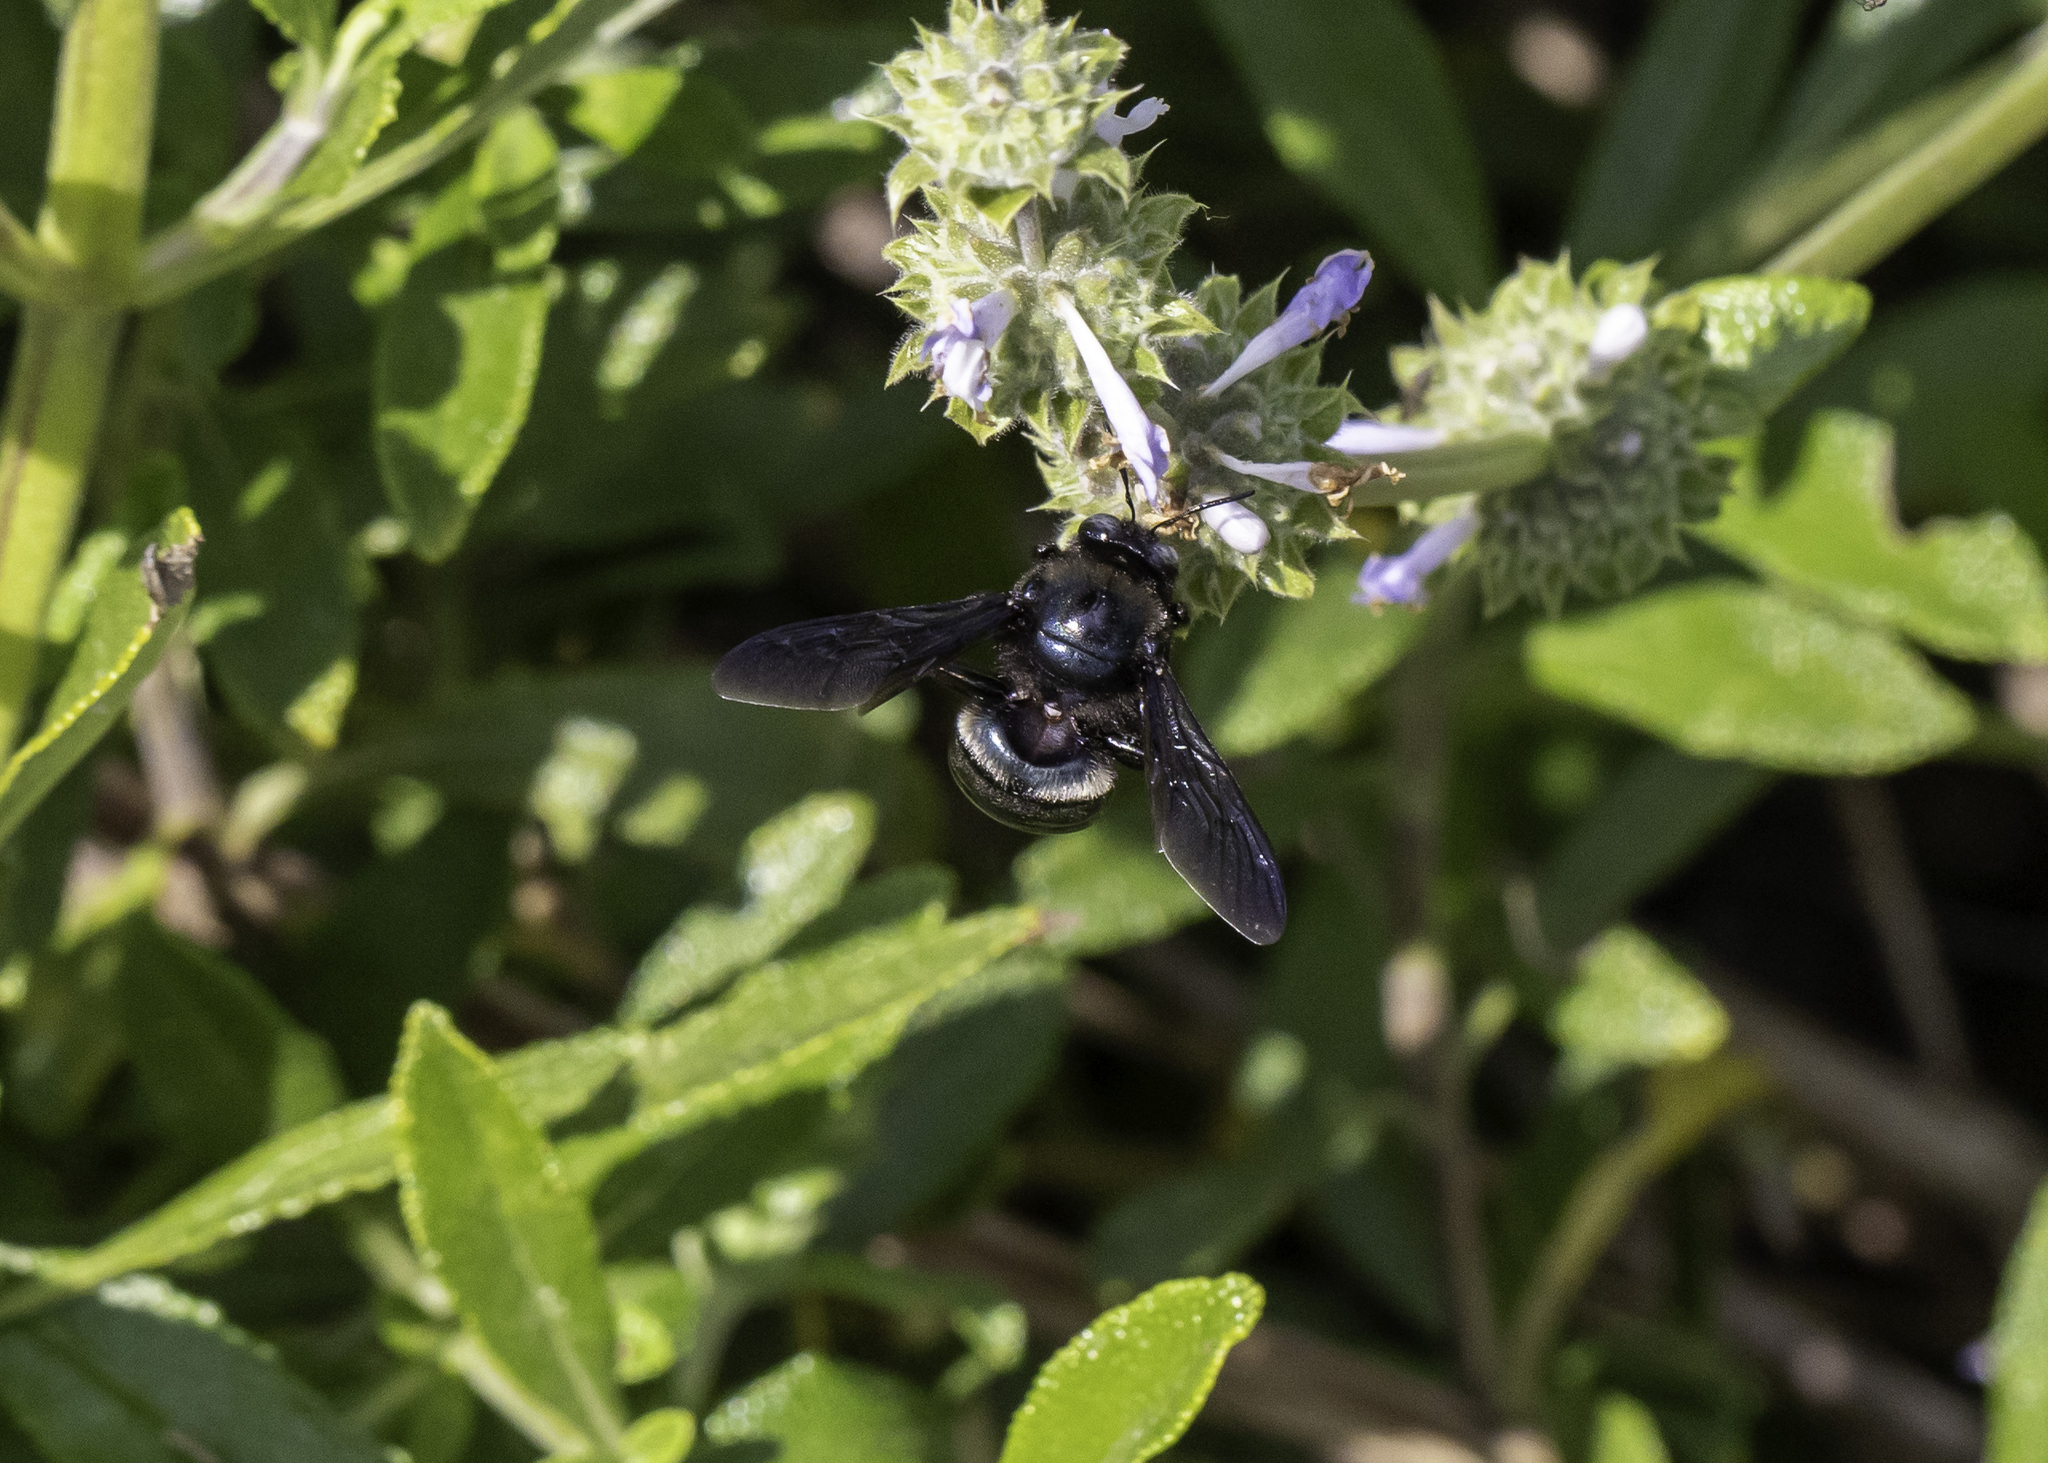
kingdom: Animalia
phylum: Arthropoda
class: Insecta
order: Hymenoptera
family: Apidae
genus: Xylocopa
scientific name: Xylocopa californica
